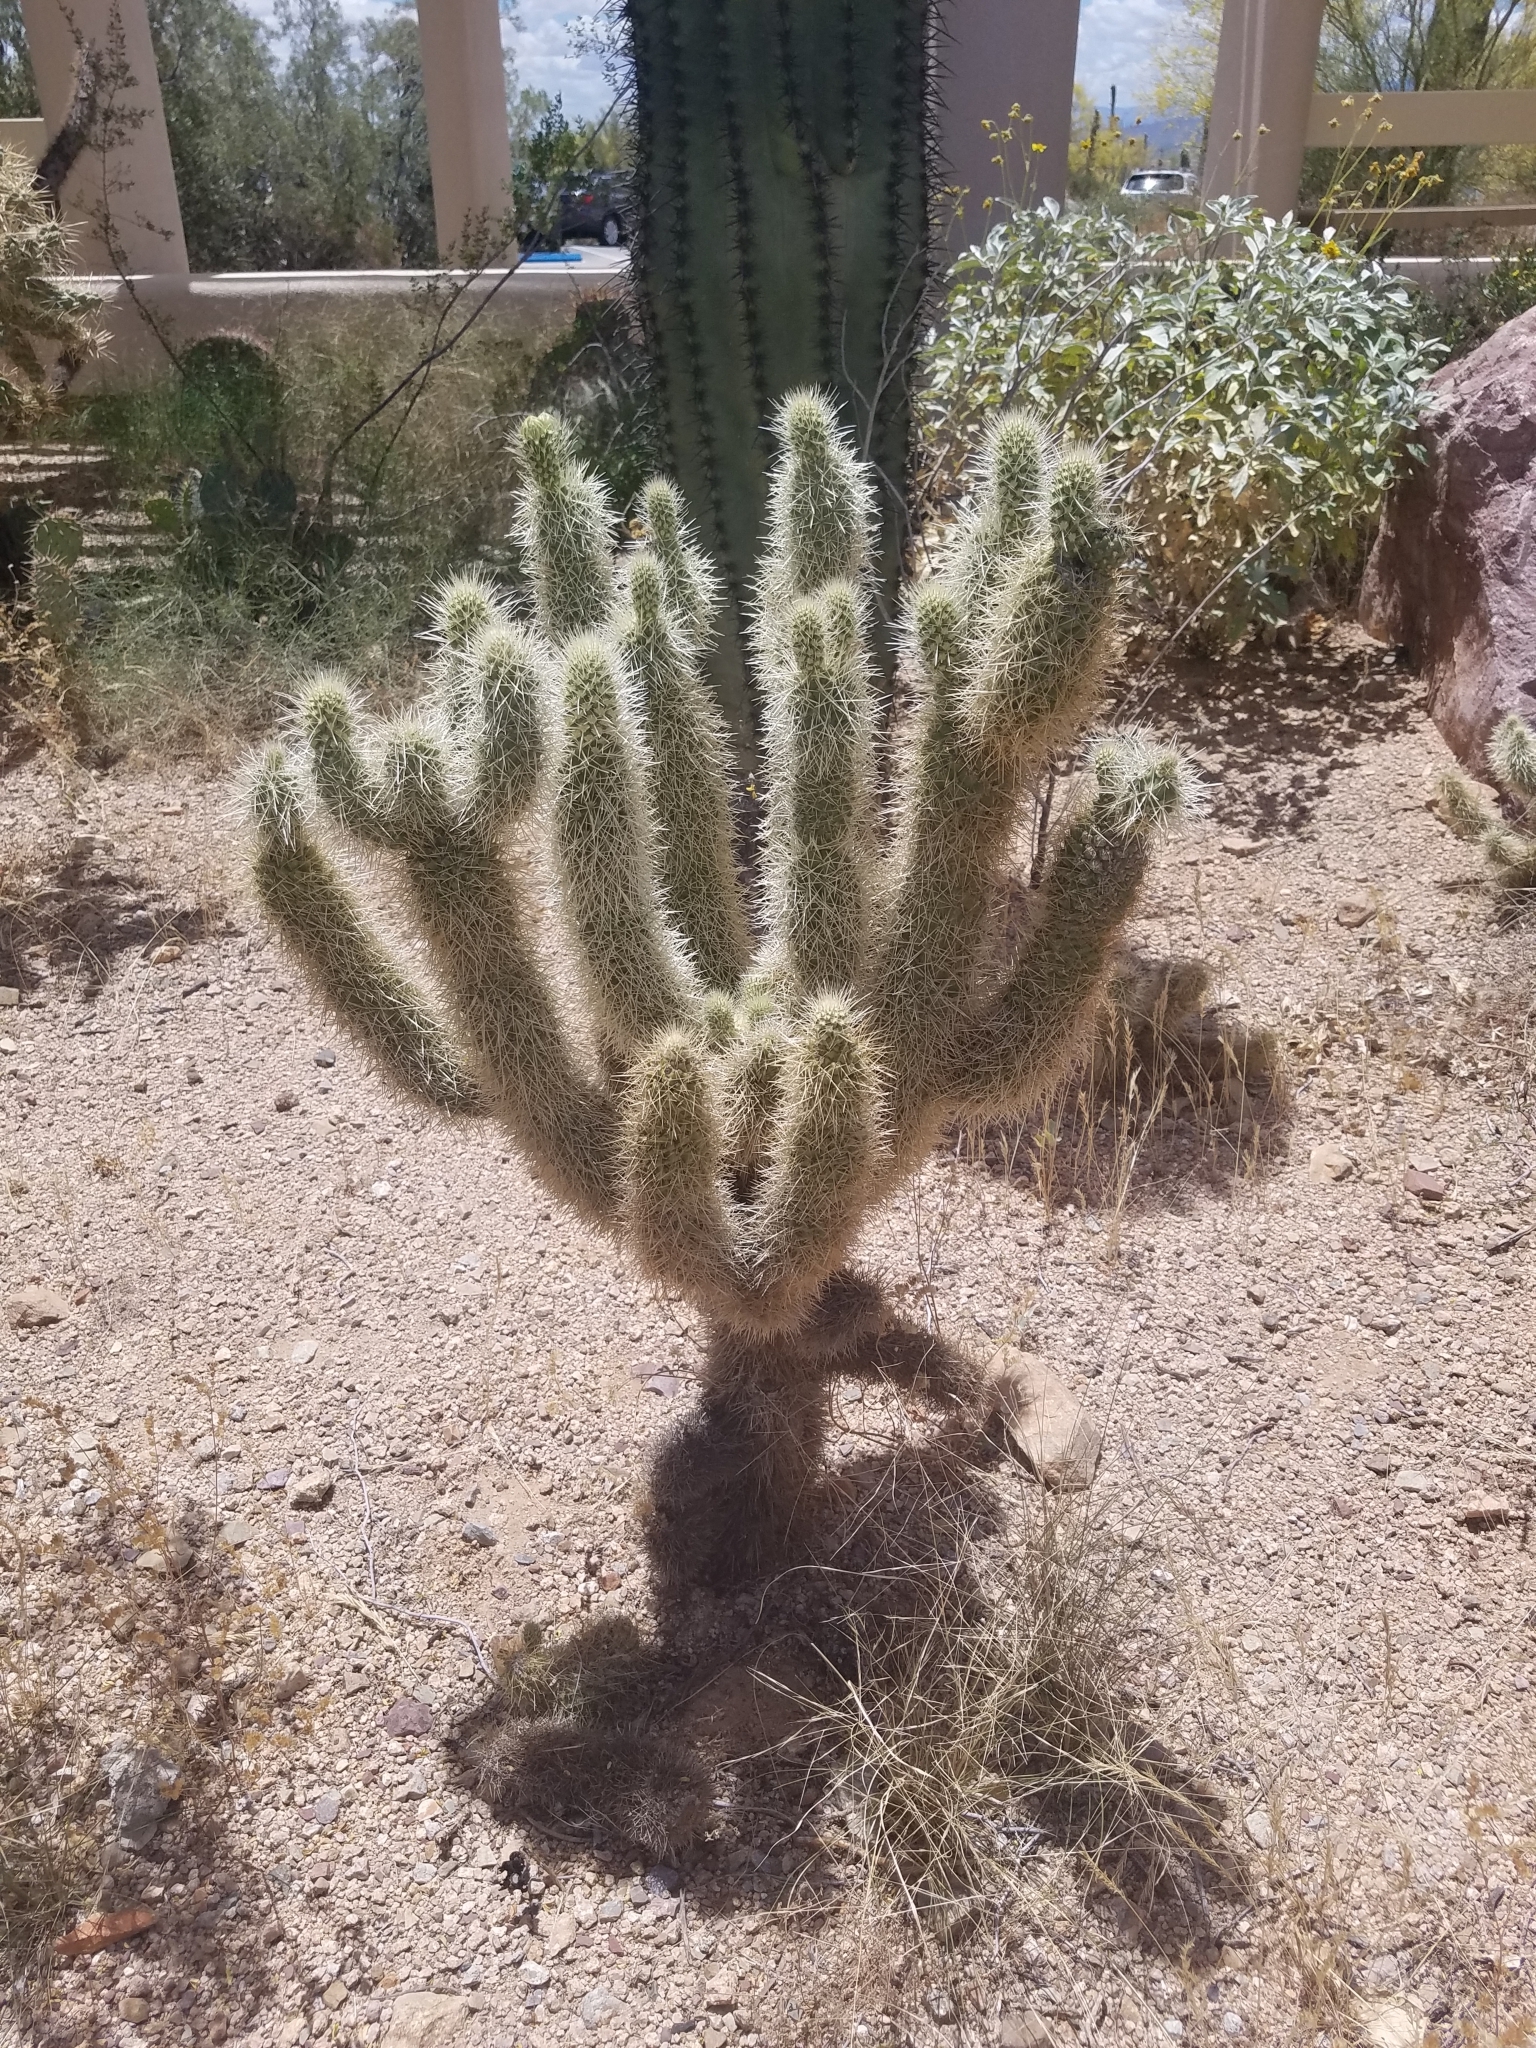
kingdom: Plantae
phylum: Tracheophyta
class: Magnoliopsida
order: Caryophyllales
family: Cactaceae
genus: Cylindropuntia
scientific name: Cylindropuntia fosbergii
